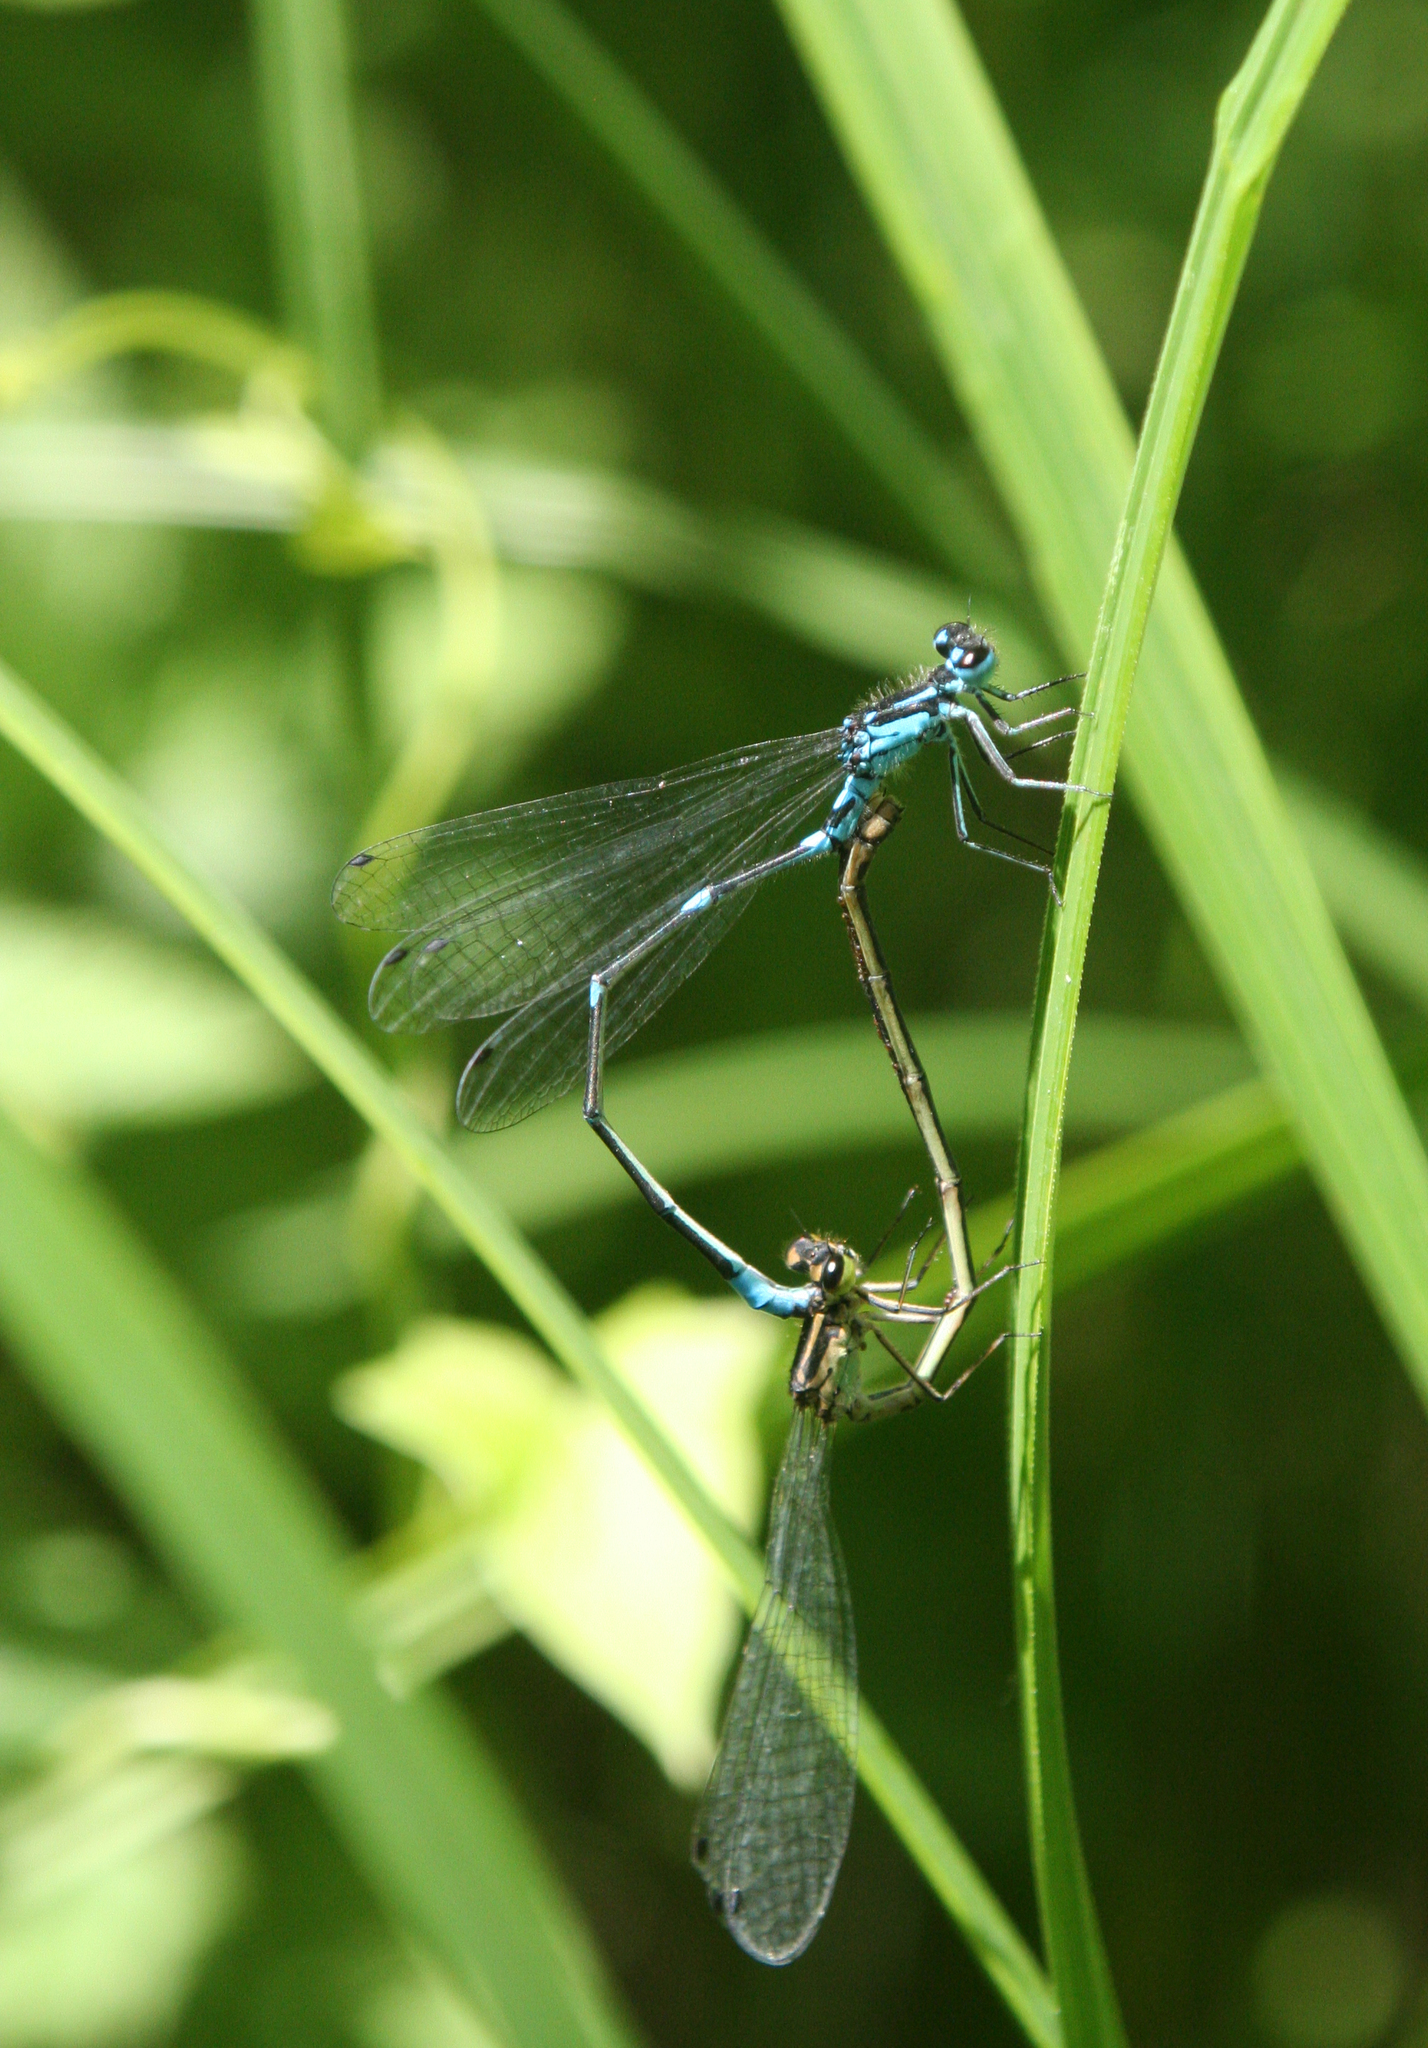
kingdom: Animalia
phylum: Arthropoda
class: Insecta
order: Odonata
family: Coenagrionidae
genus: Coenagrion
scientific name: Coenagrion pulchellum
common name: Variable bluet
